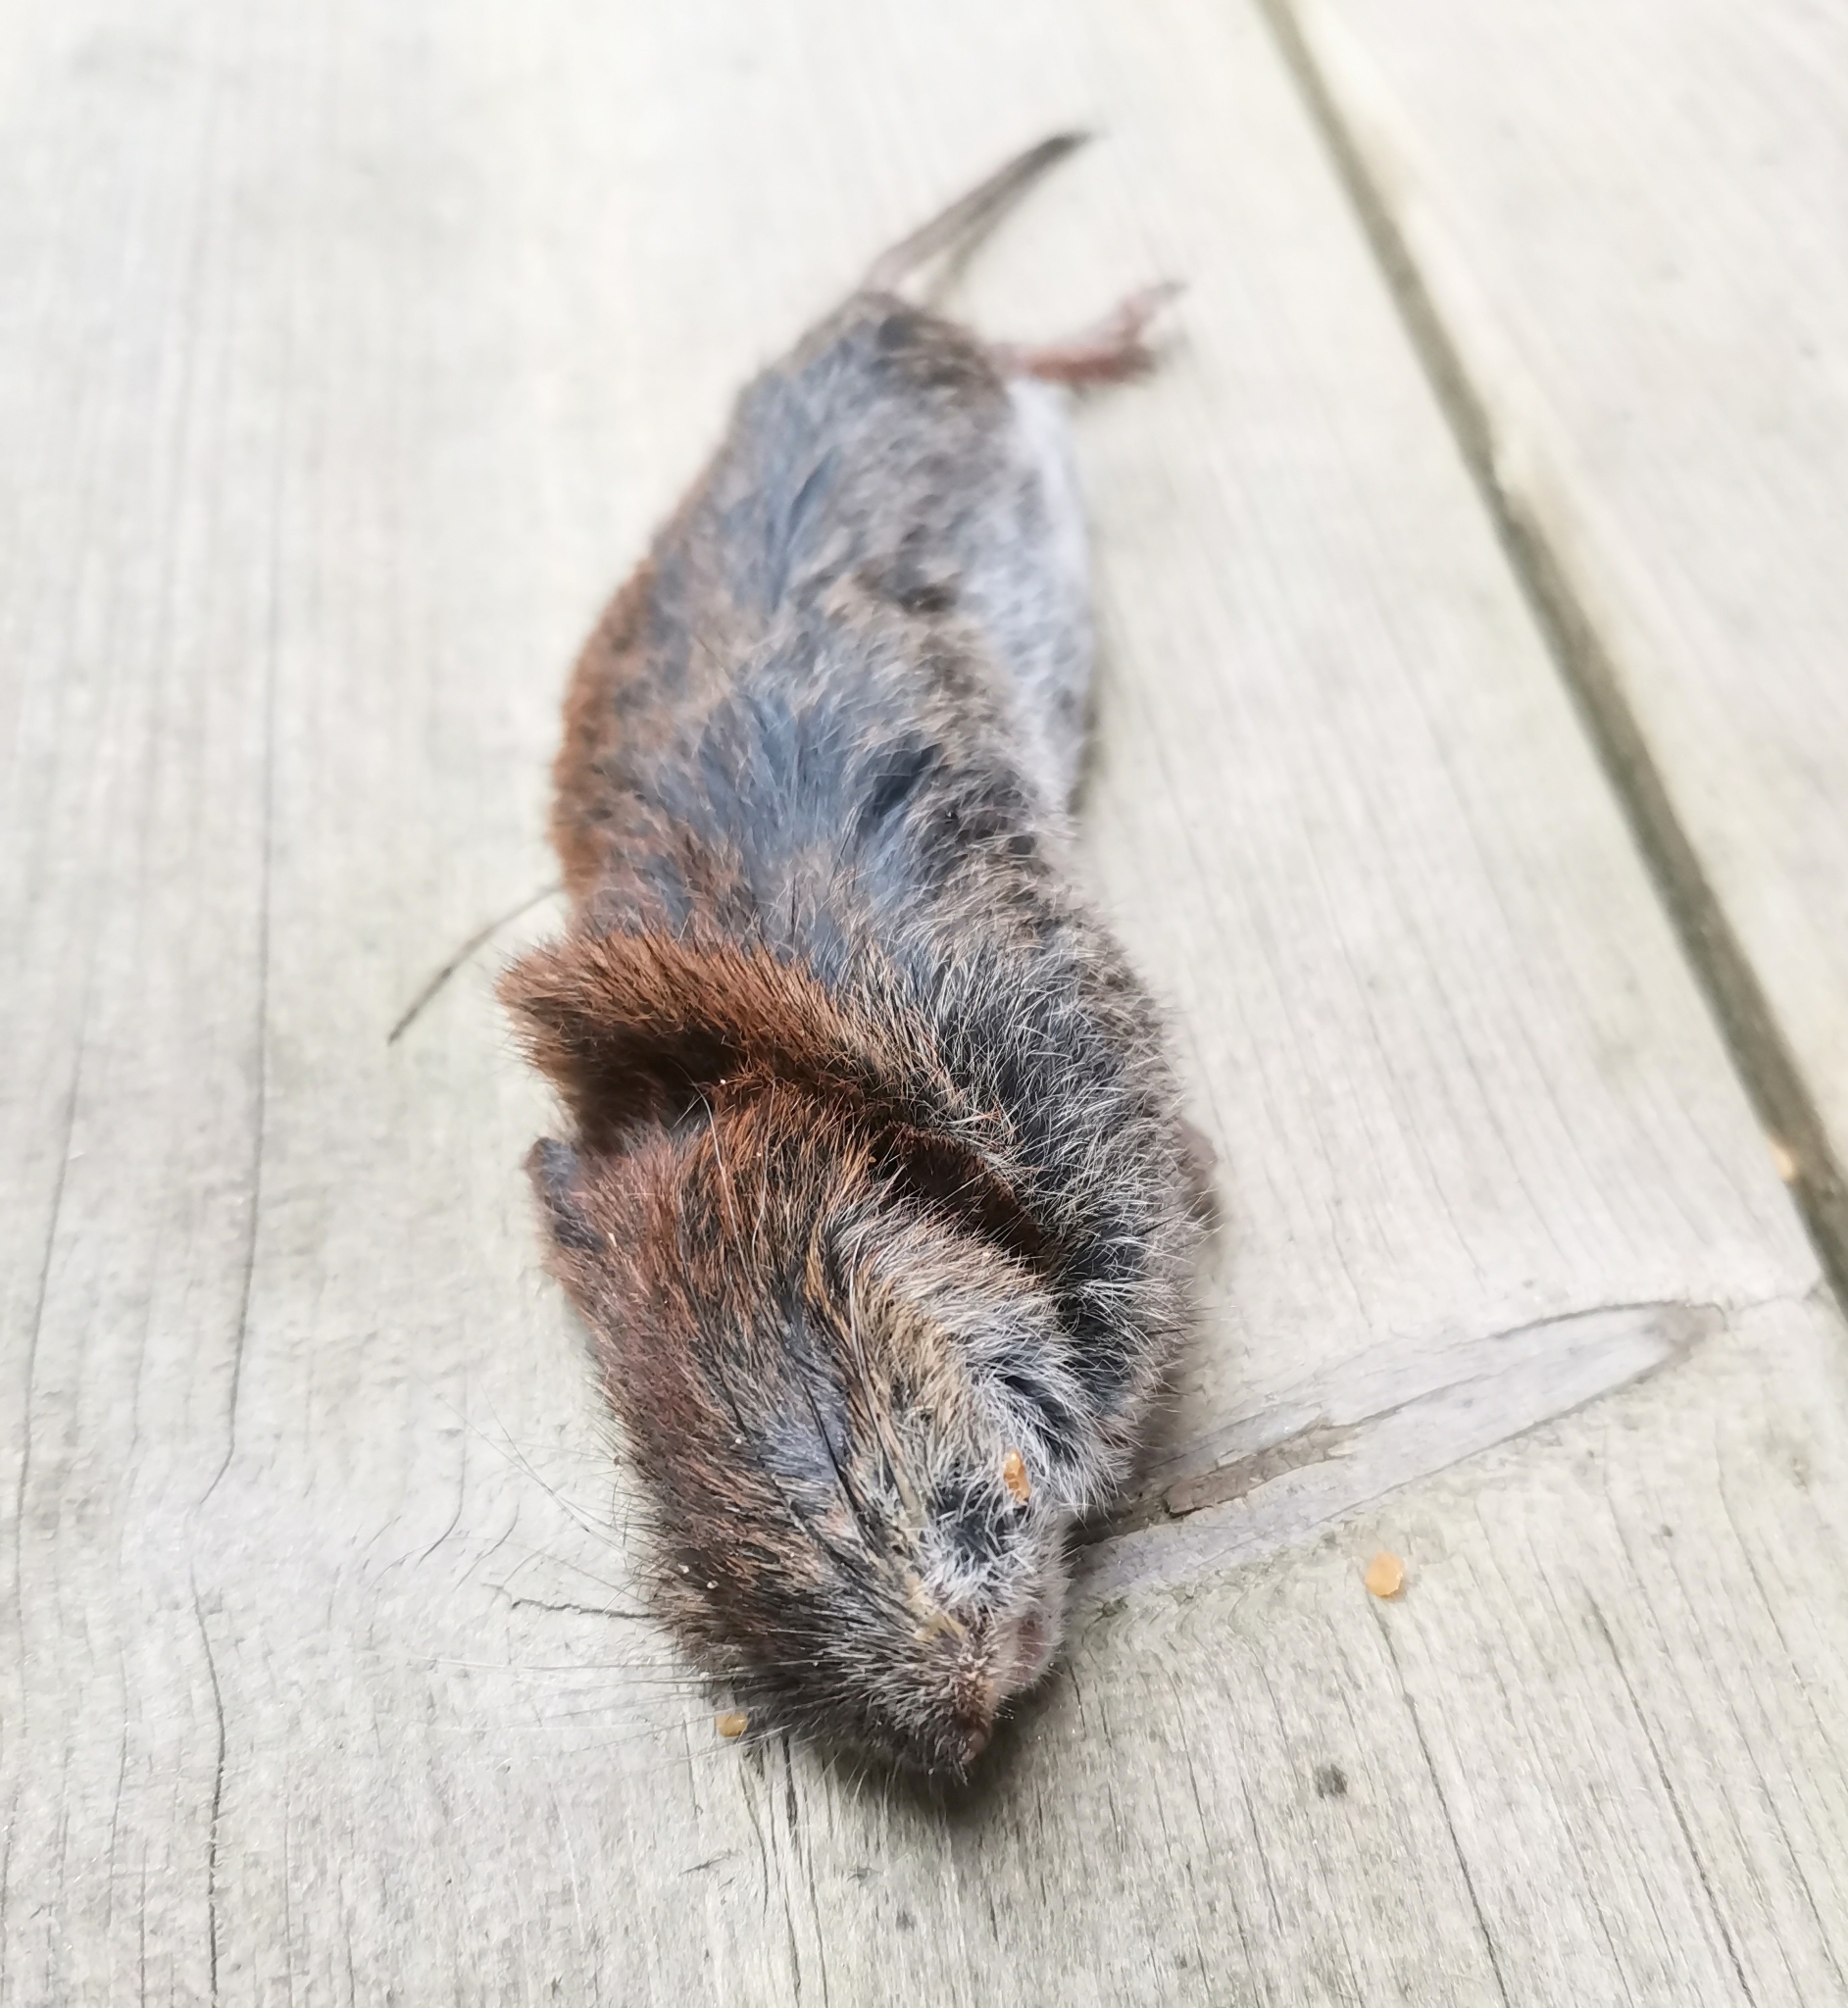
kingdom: Animalia
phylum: Chordata
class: Mammalia
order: Rodentia
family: Cricetidae
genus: Myodes
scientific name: Myodes glareolus
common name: Bank vole
